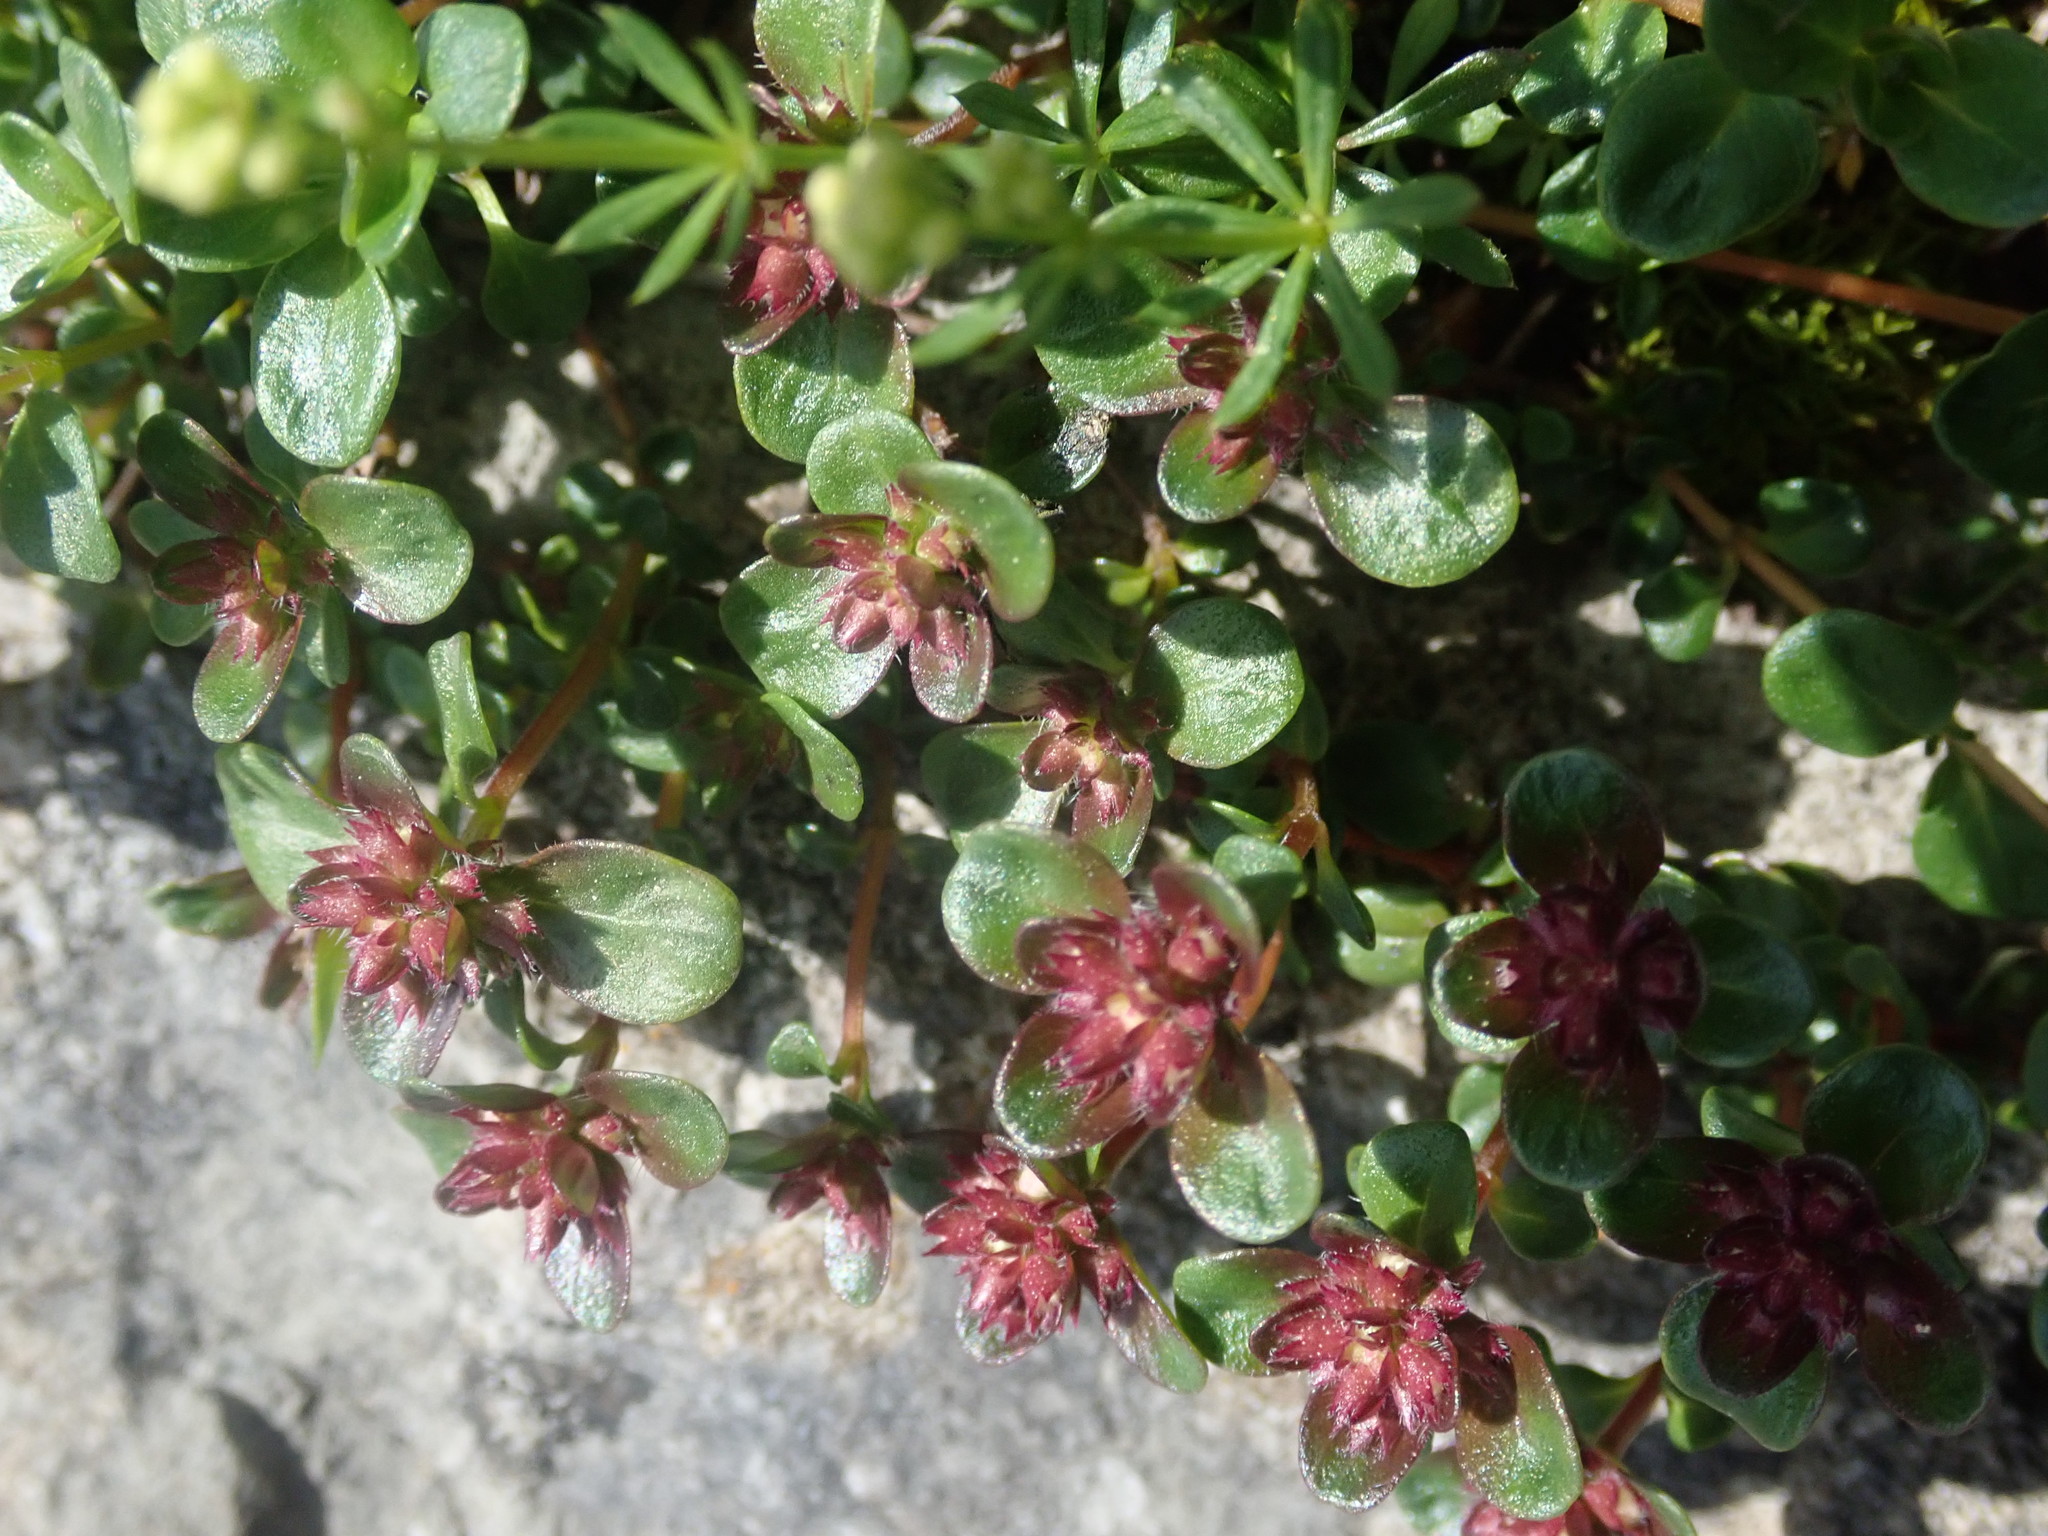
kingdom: Plantae
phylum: Tracheophyta
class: Magnoliopsida
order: Lamiales
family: Lamiaceae
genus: Thymus
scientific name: Thymus praecox
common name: Wild thyme
